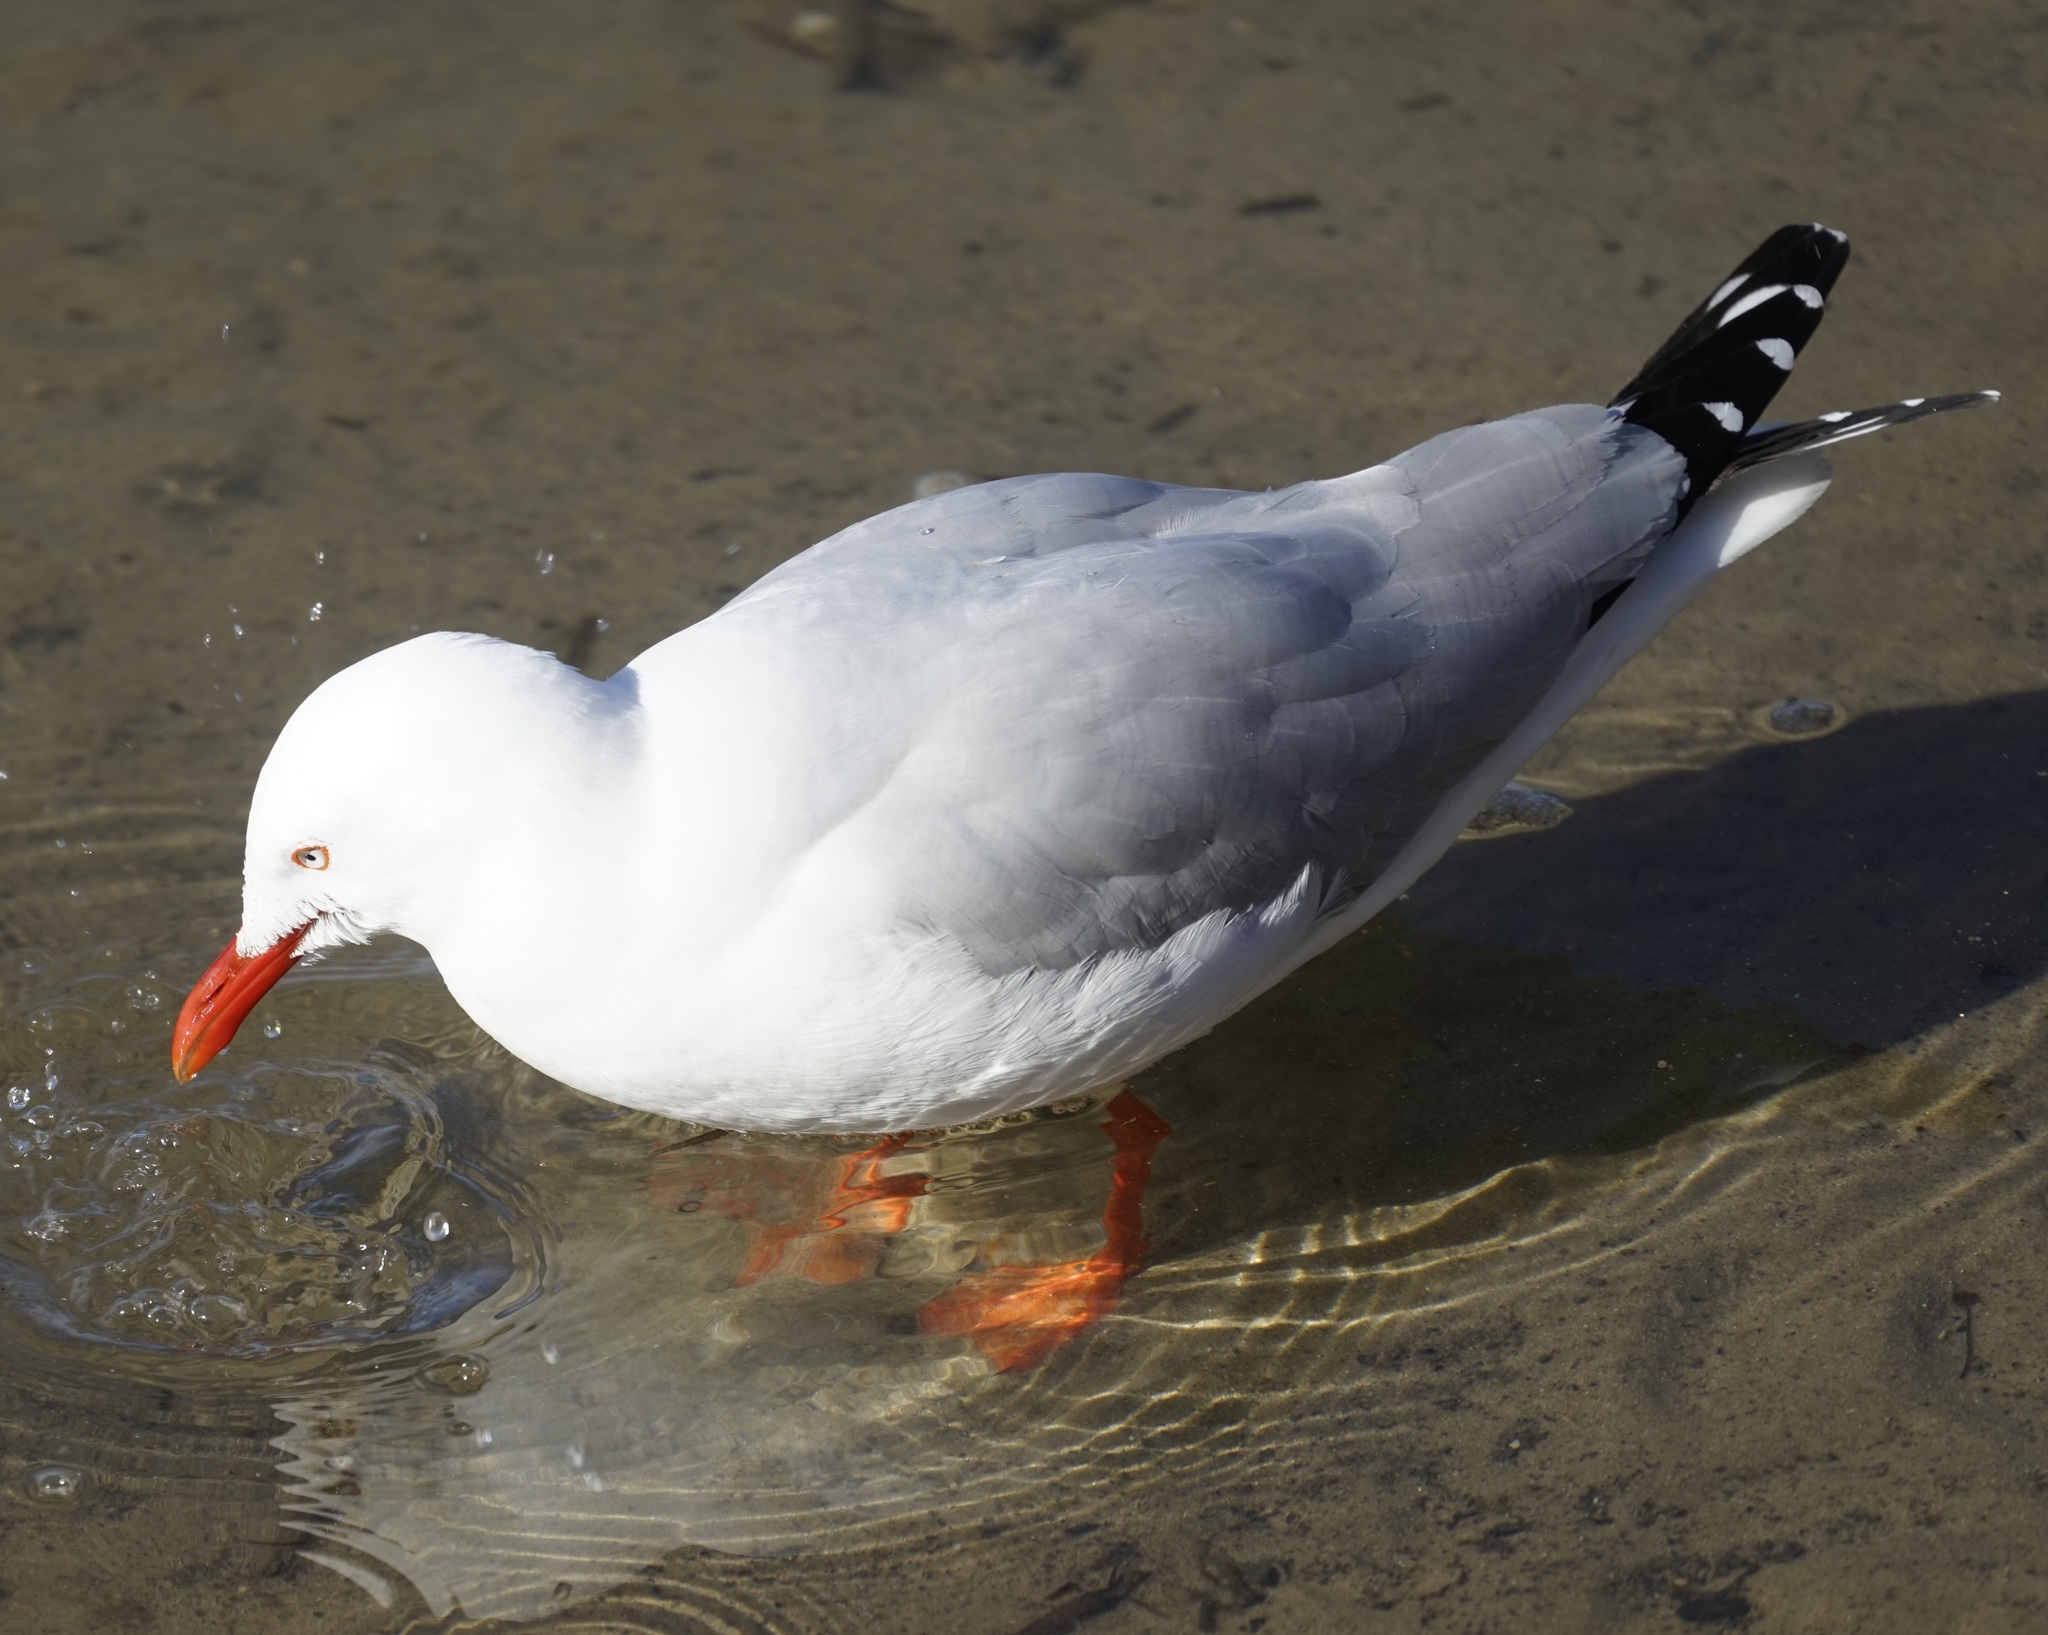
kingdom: Animalia
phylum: Chordata
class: Aves
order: Charadriiformes
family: Laridae
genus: Chroicocephalus
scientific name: Chroicocephalus novaehollandiae
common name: Silver gull
